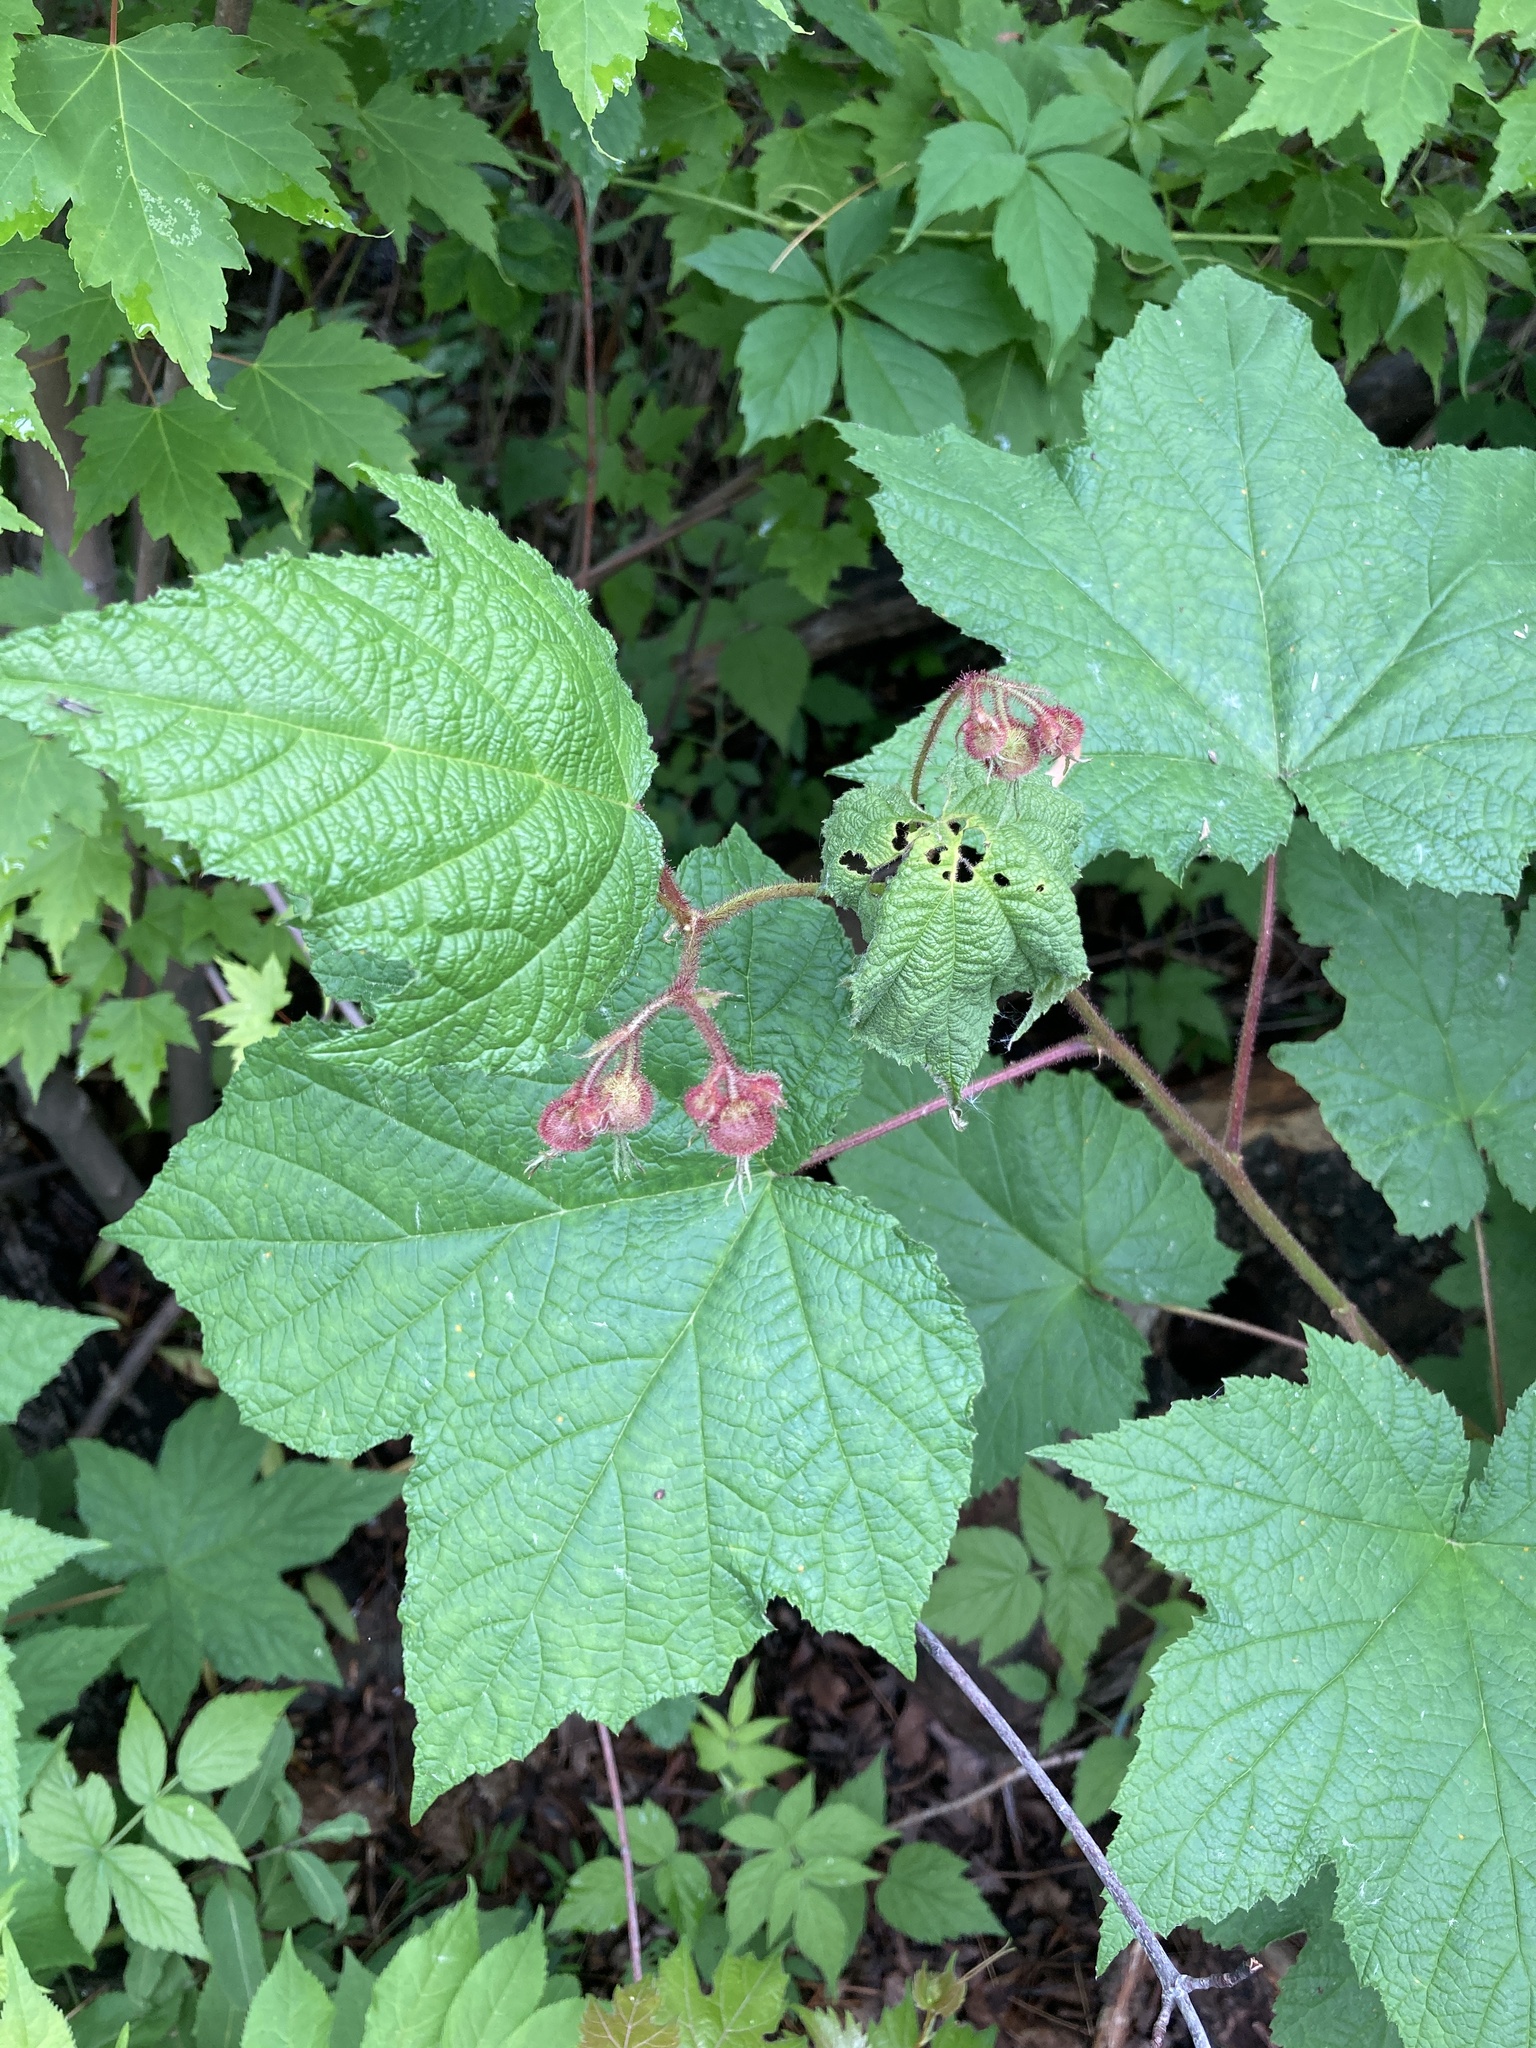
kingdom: Plantae
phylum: Tracheophyta
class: Magnoliopsida
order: Rosales
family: Rosaceae
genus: Rubus
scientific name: Rubus odoratus
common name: Purple-flowered raspberry
